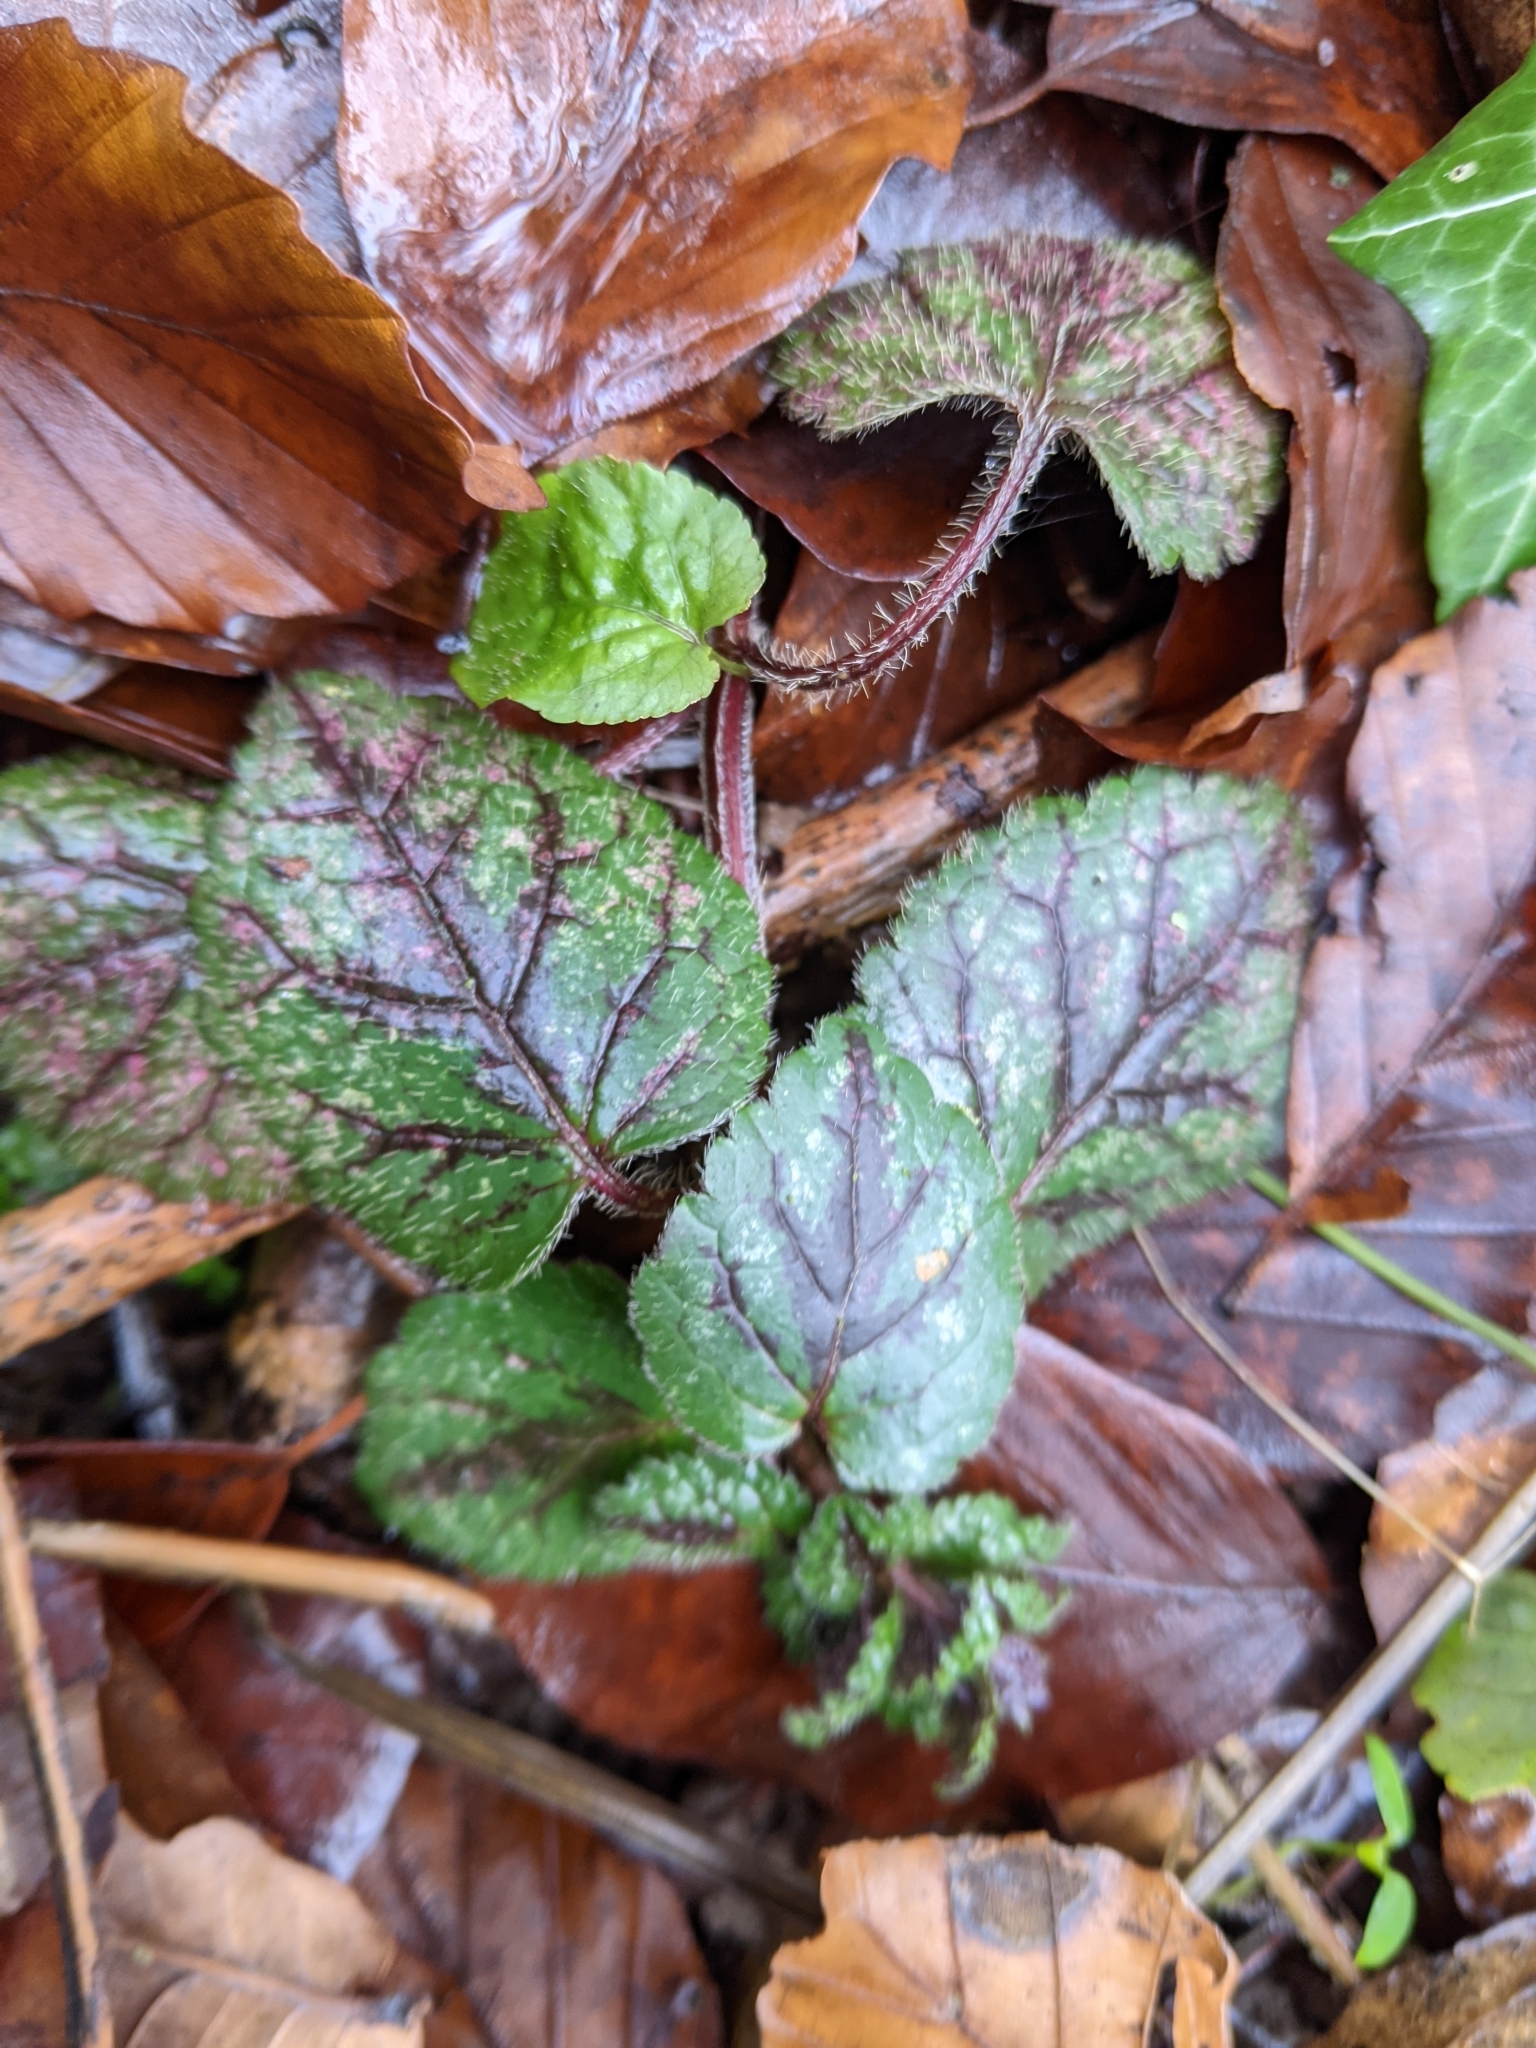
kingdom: Plantae
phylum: Tracheophyta
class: Magnoliopsida
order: Lamiales
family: Lamiaceae
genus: Lamium
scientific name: Lamium galeobdolon
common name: Yellow archangel
